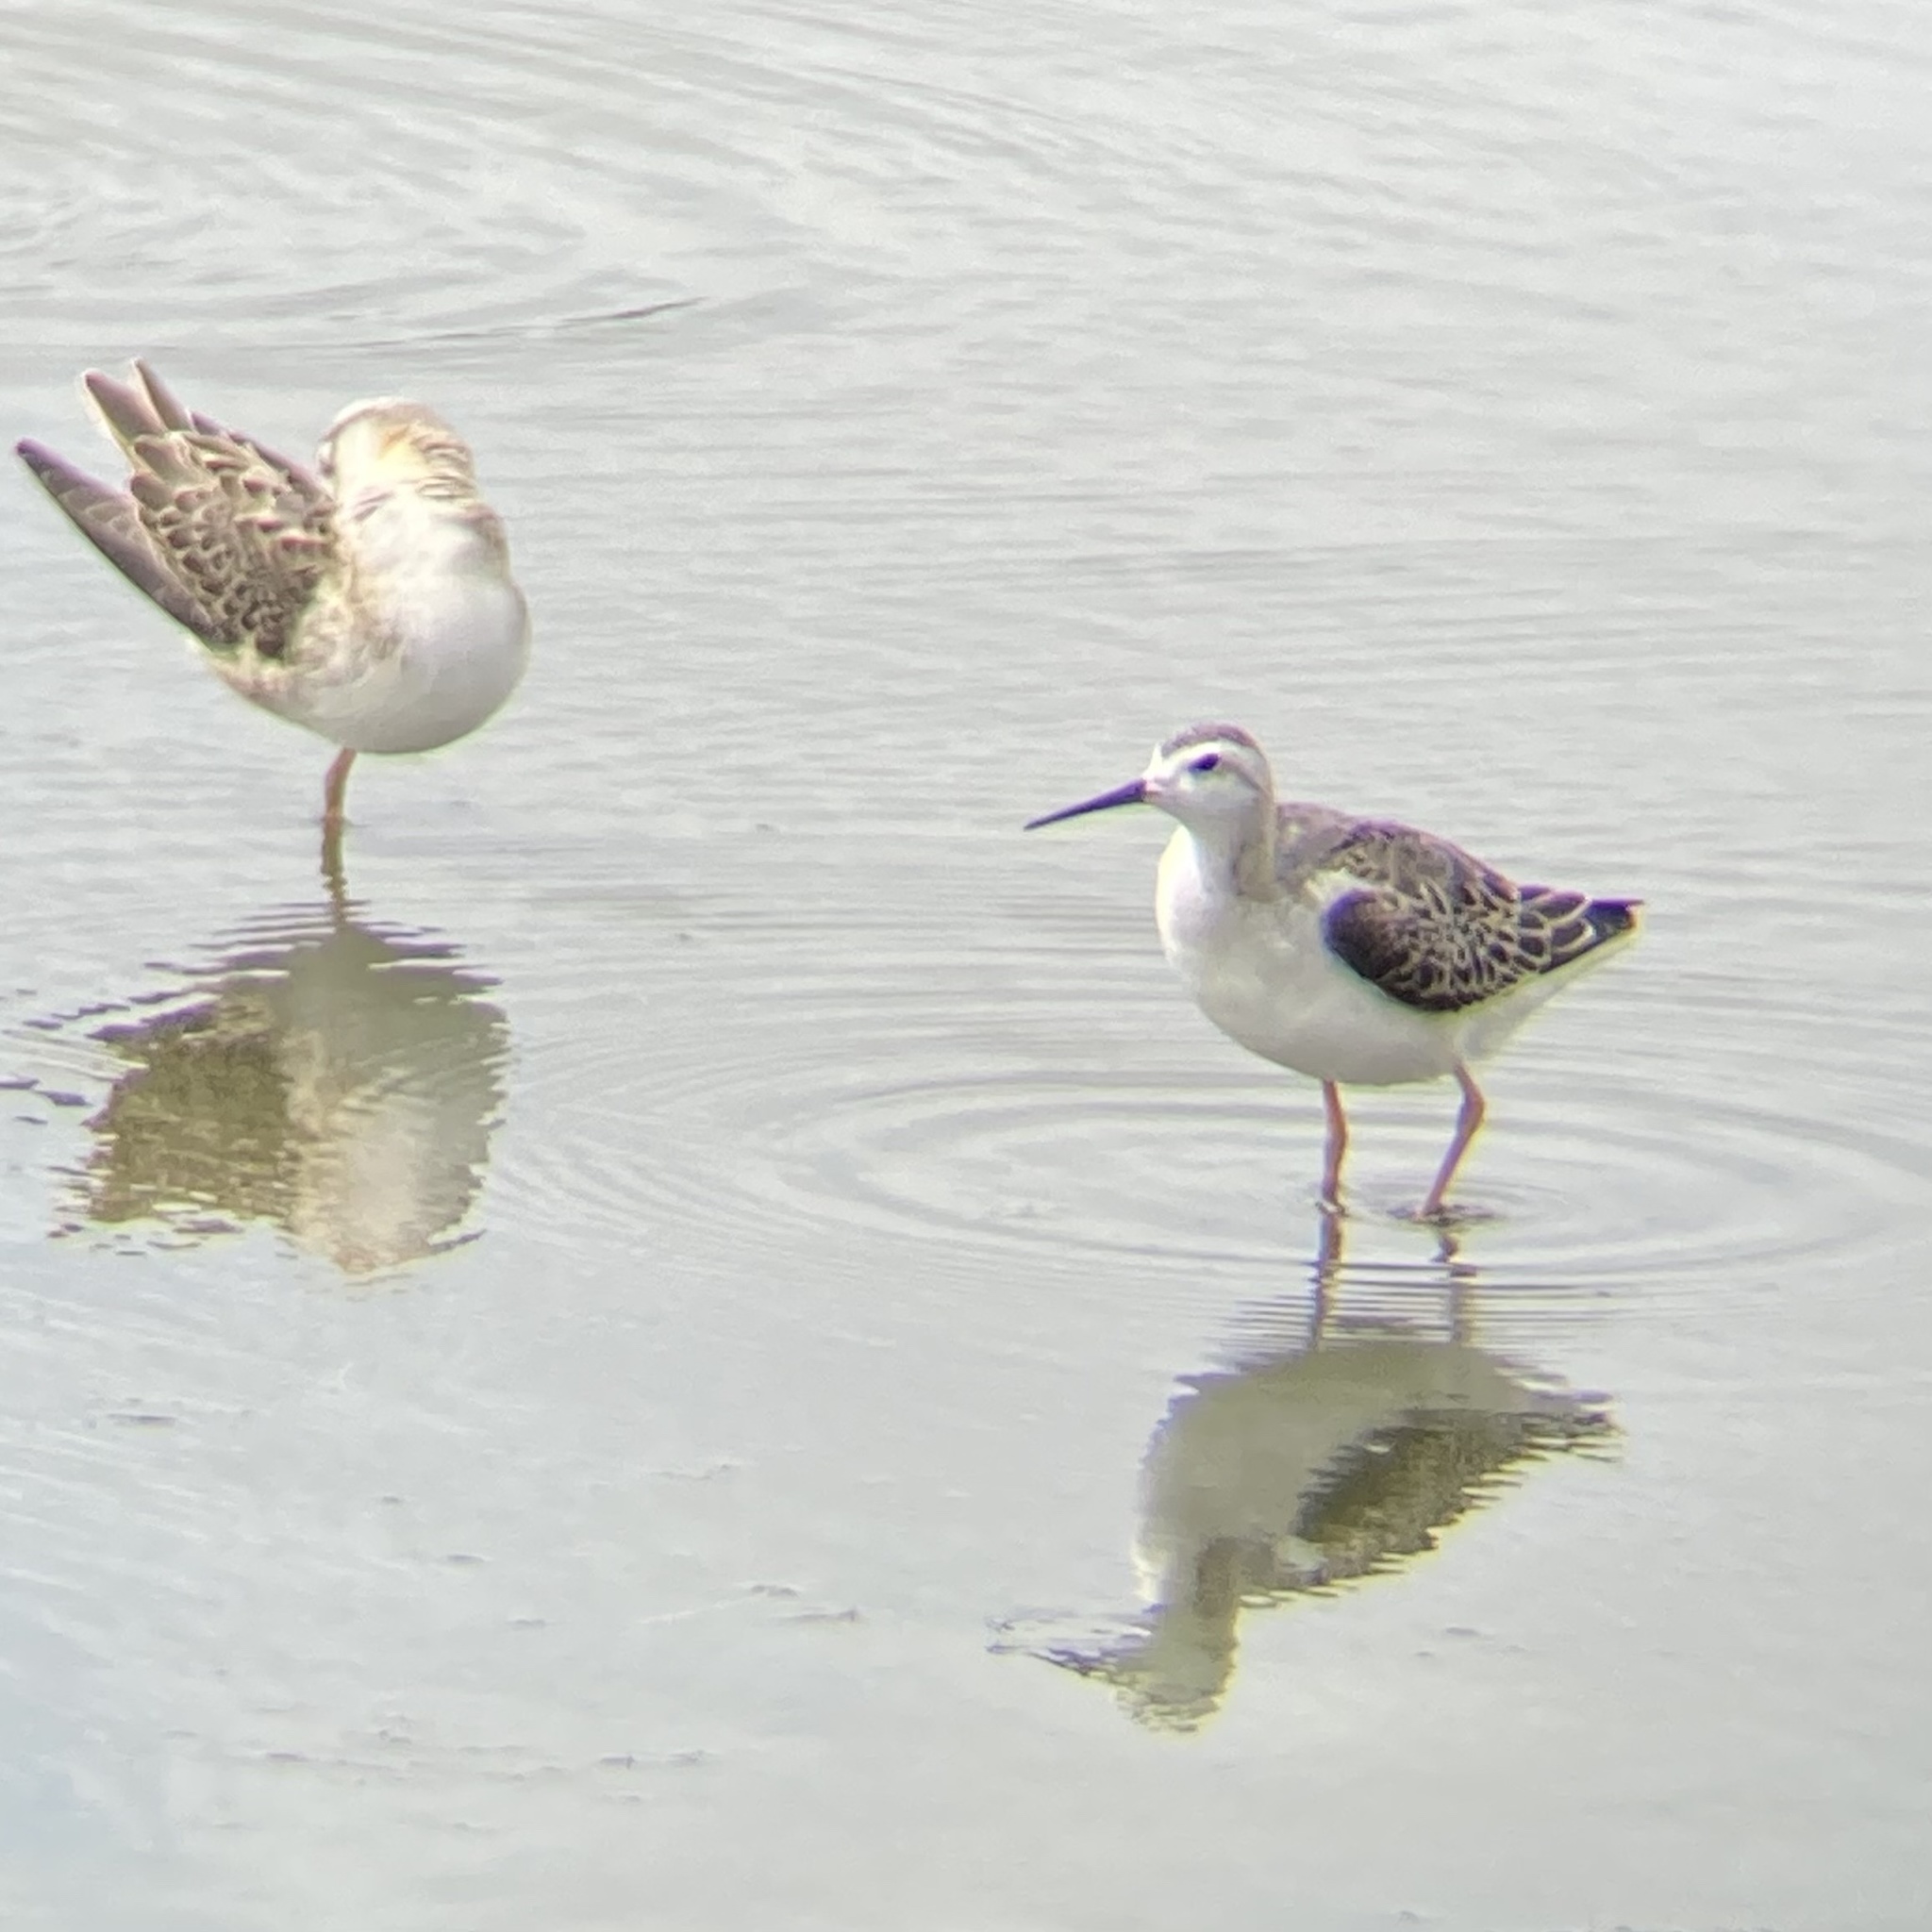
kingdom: Animalia
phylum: Chordata
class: Aves
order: Charadriiformes
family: Scolopacidae
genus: Phalaropus
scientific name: Phalaropus tricolor
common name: Wilson's phalarope
